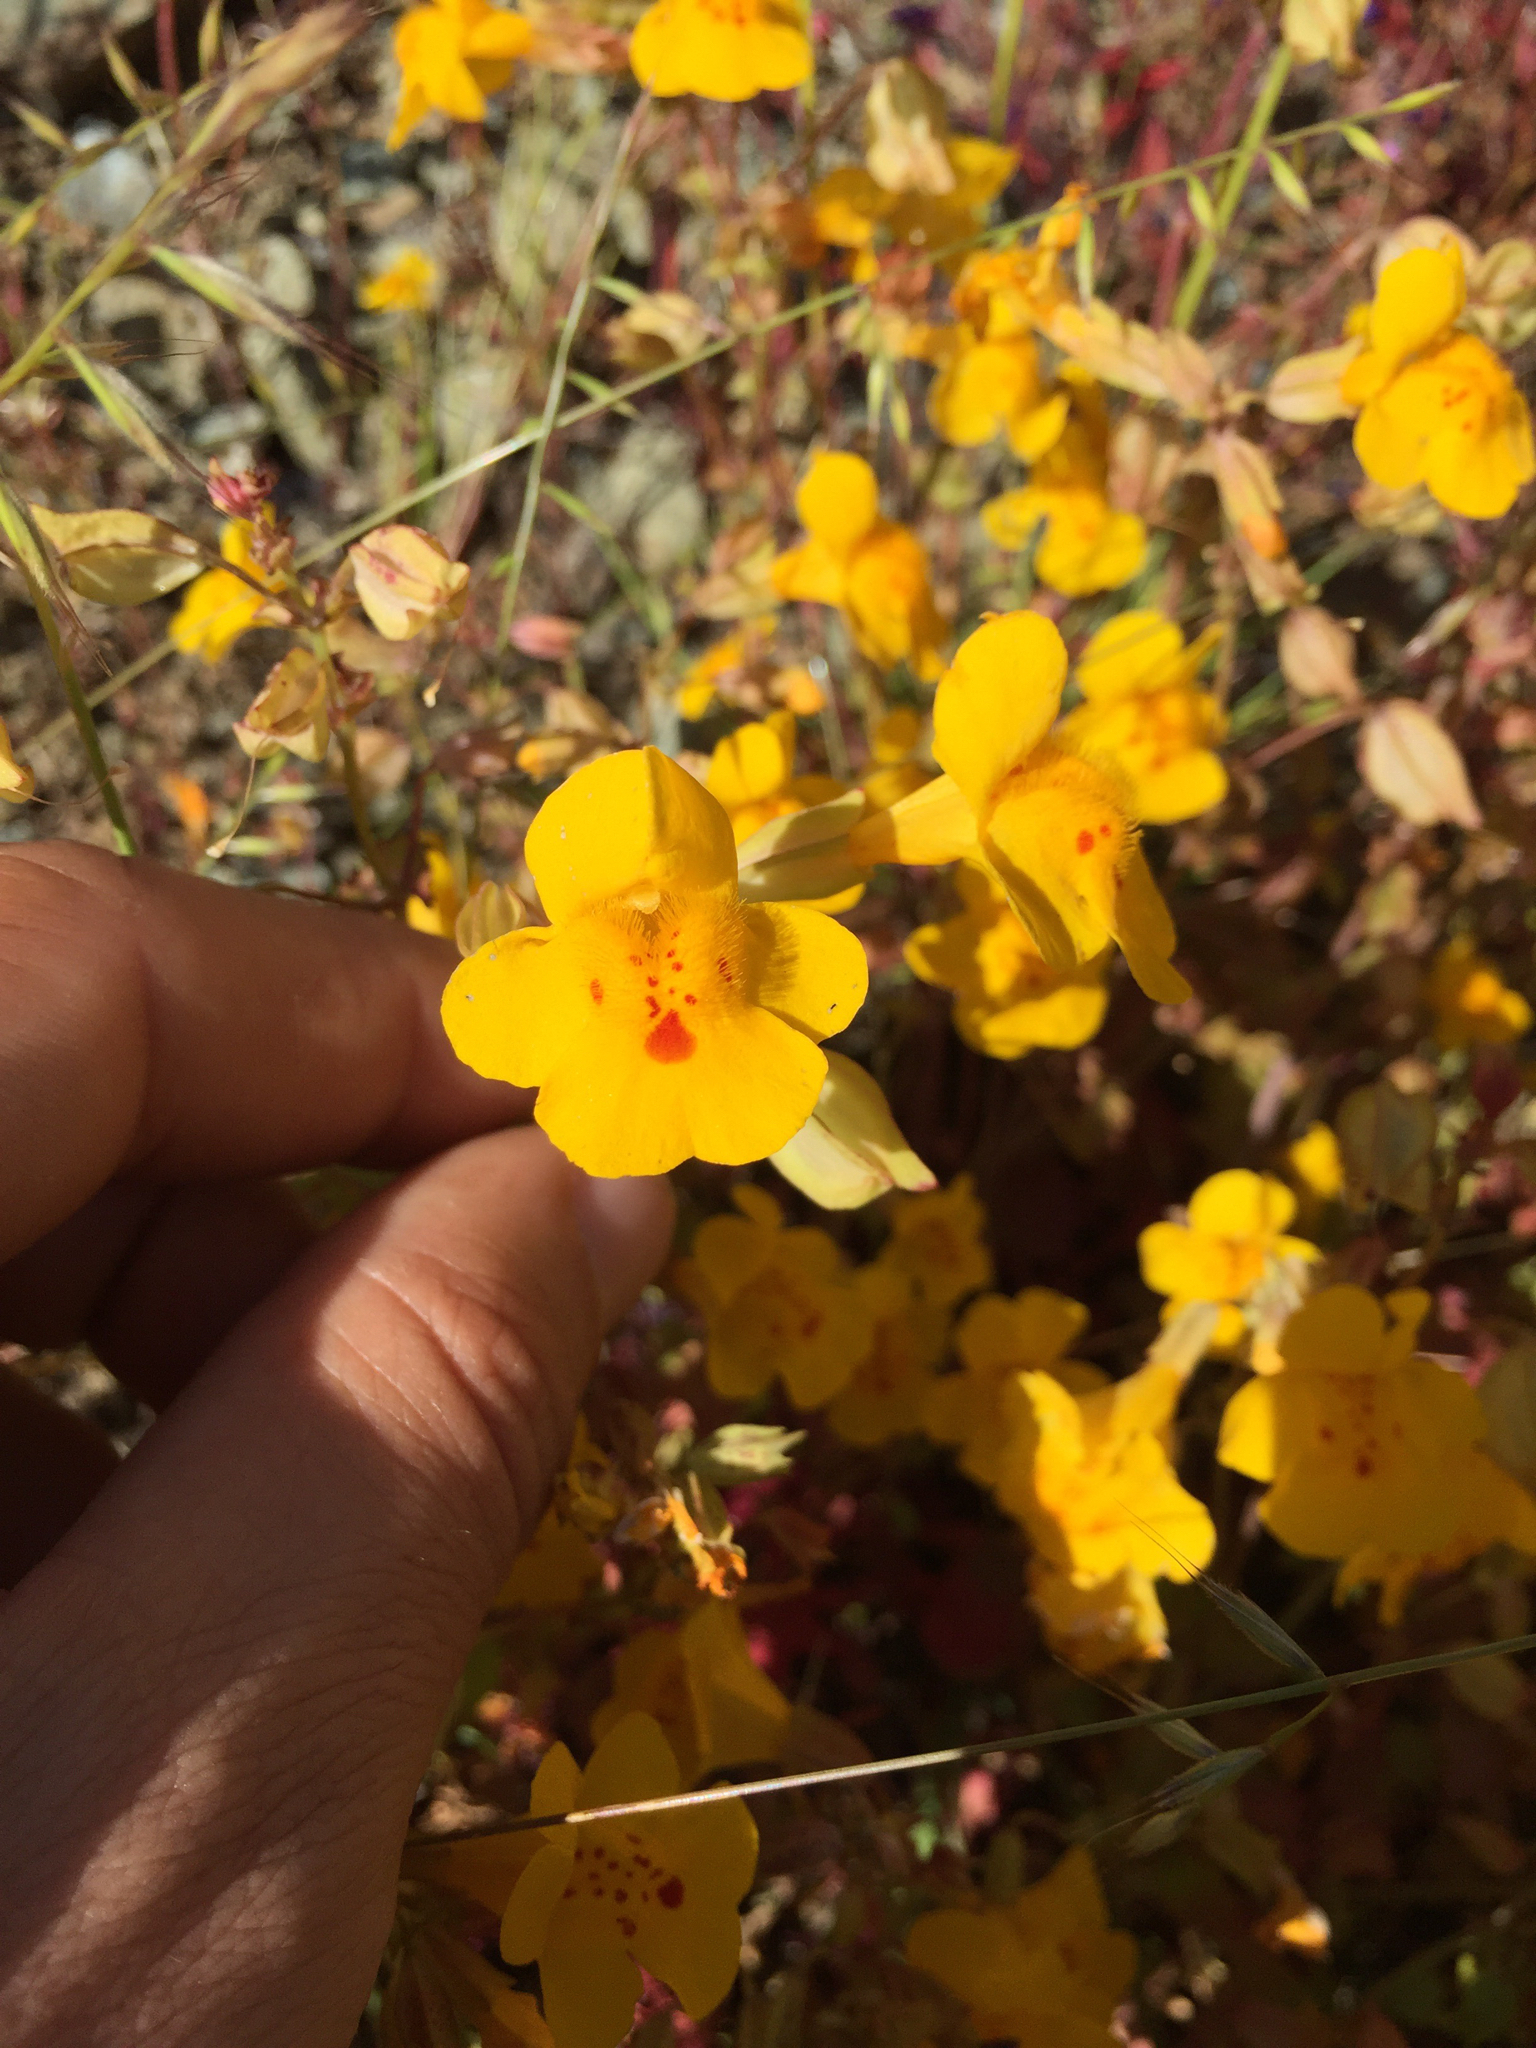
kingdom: Plantae
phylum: Tracheophyta
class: Magnoliopsida
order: Lamiales
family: Phrymaceae
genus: Erythranthe
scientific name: Erythranthe guttata
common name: Monkeyflower
